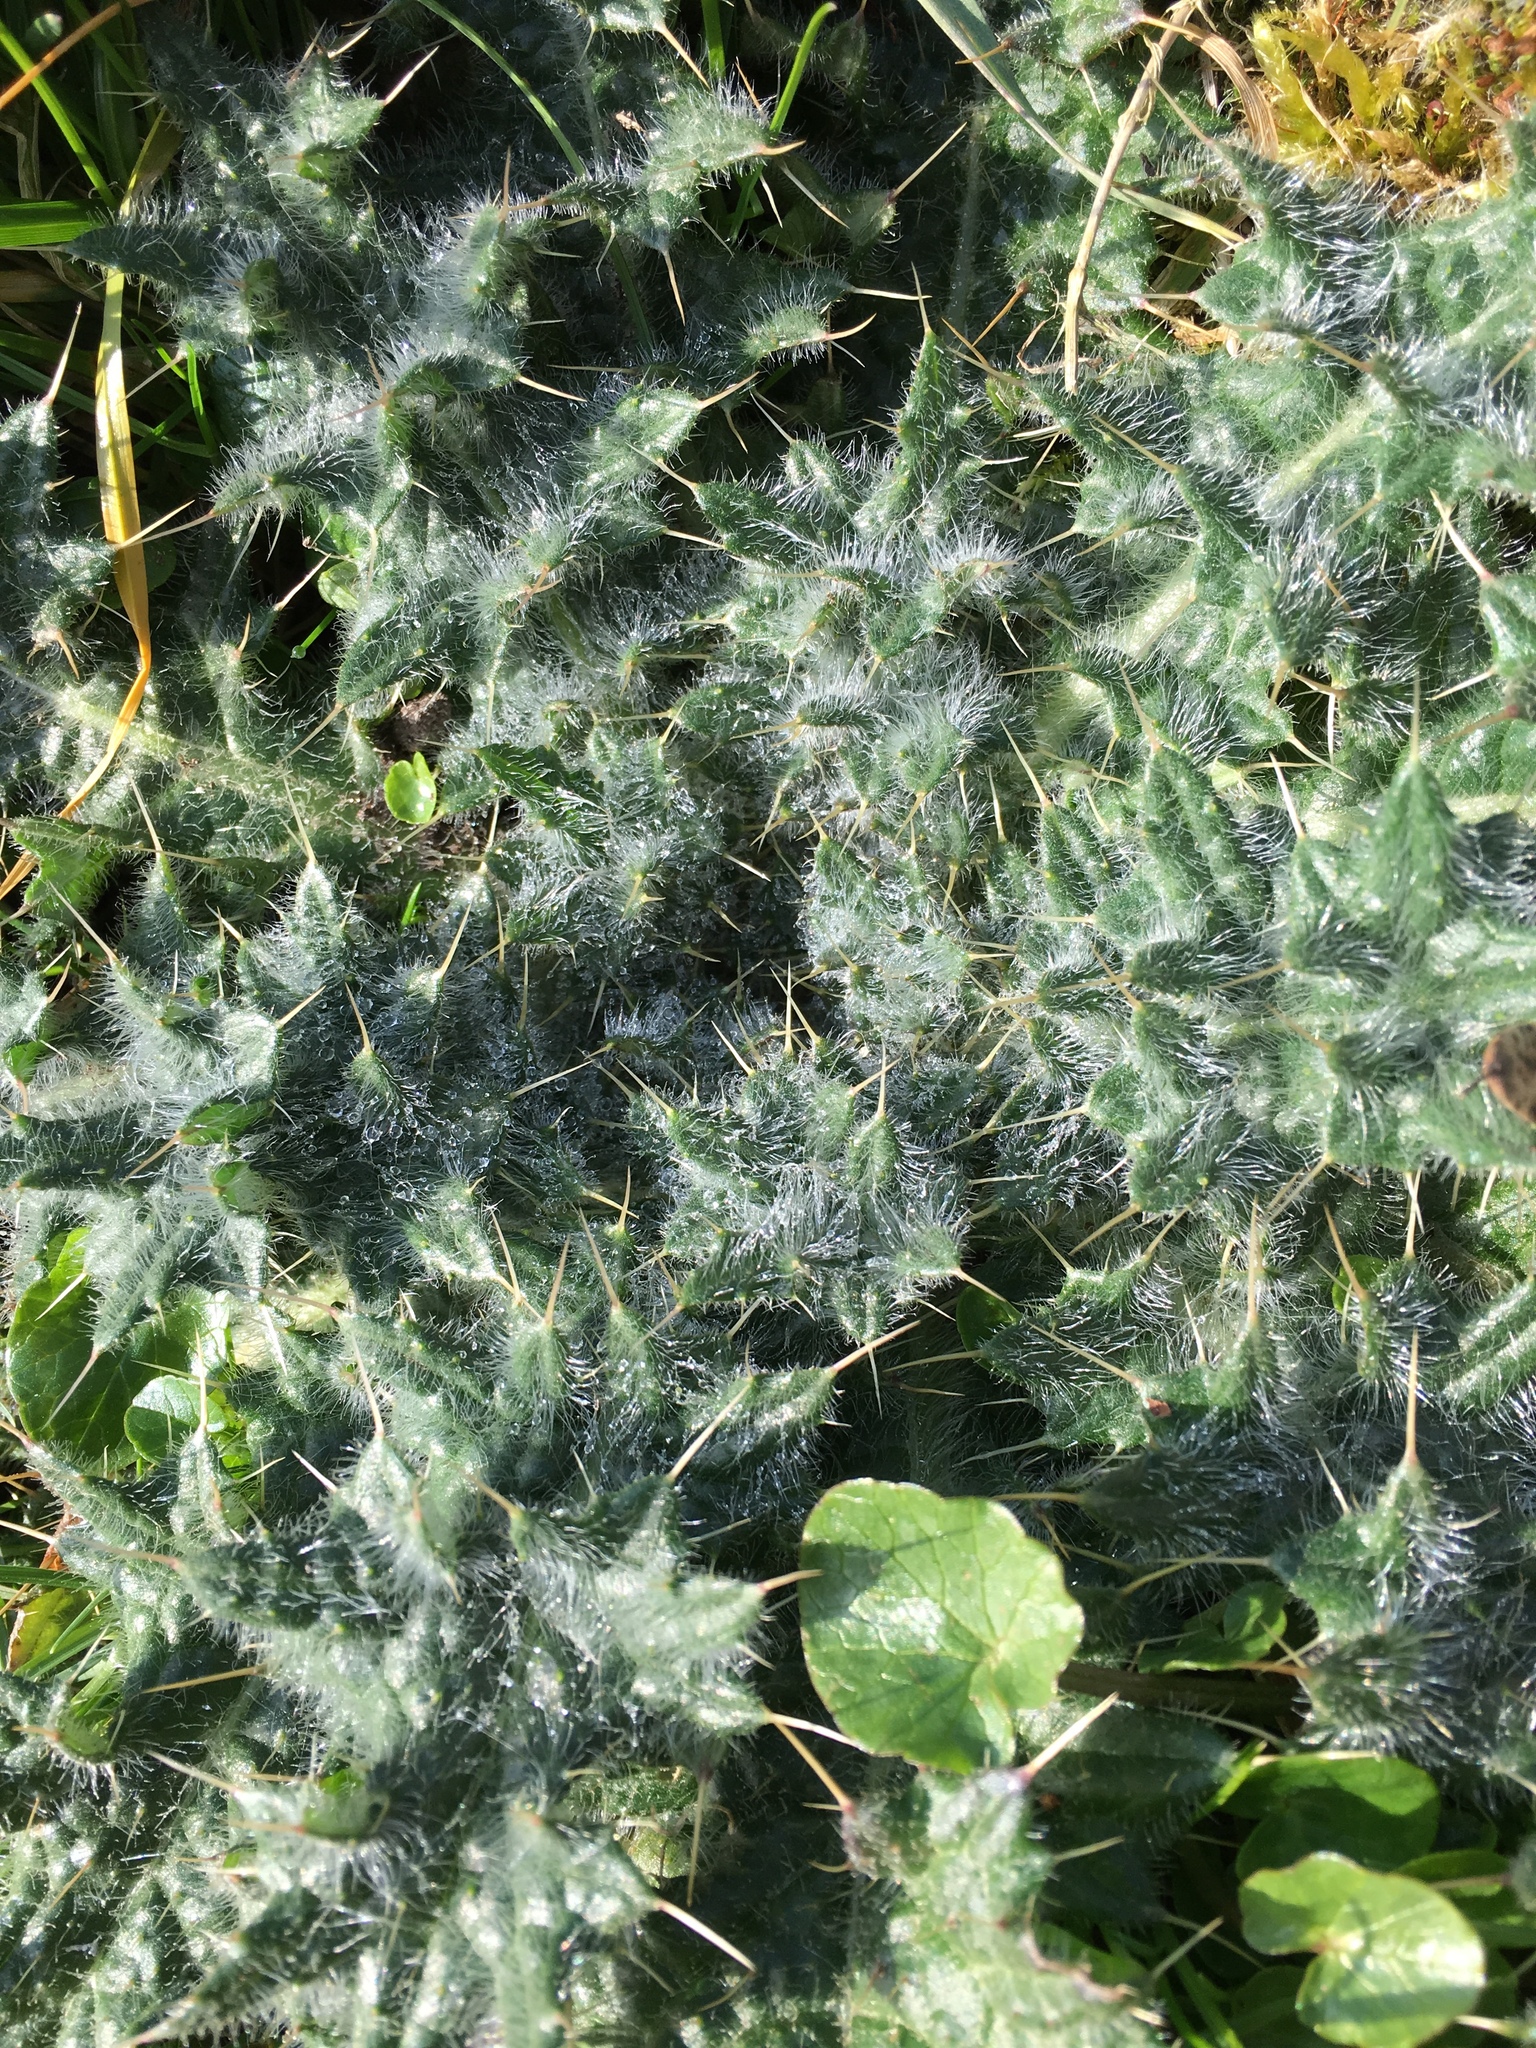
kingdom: Plantae
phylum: Tracheophyta
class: Magnoliopsida
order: Asterales
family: Asteraceae
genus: Cirsium
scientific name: Cirsium vulgare
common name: Bull thistle
